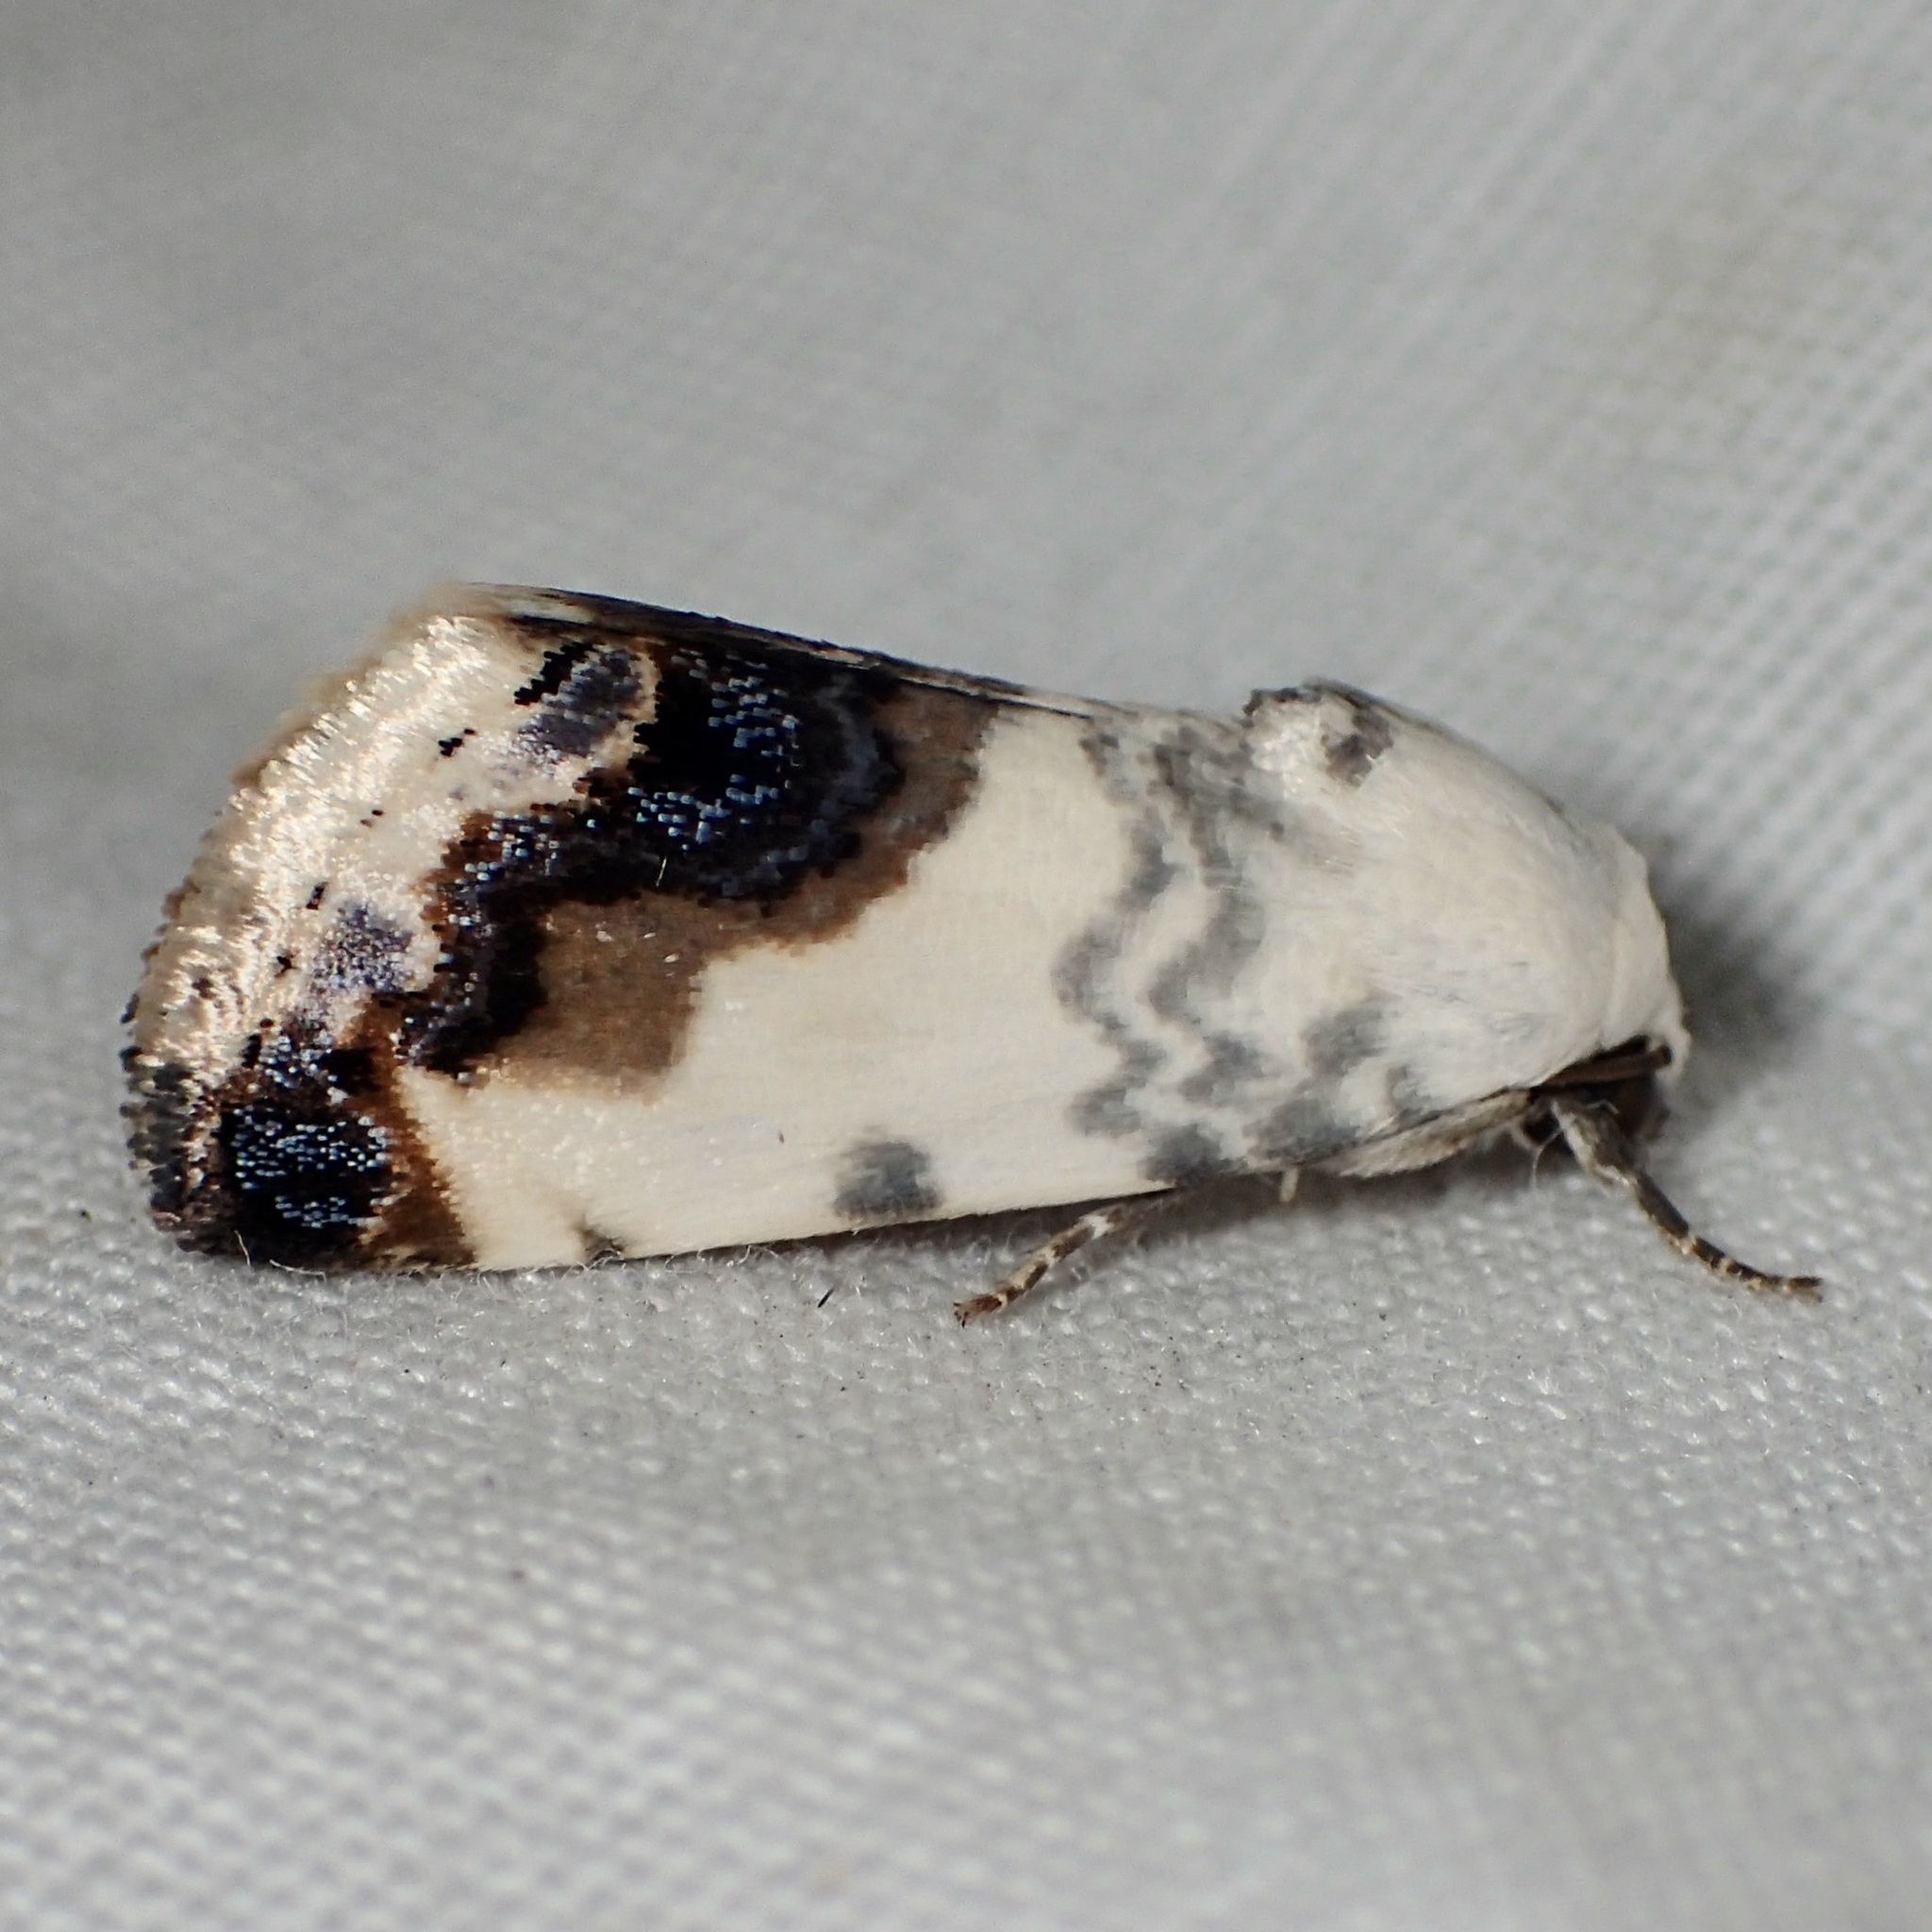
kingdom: Animalia
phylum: Arthropoda
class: Insecta
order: Lepidoptera
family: Noctuidae
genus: Acontia
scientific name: Acontia behrii
